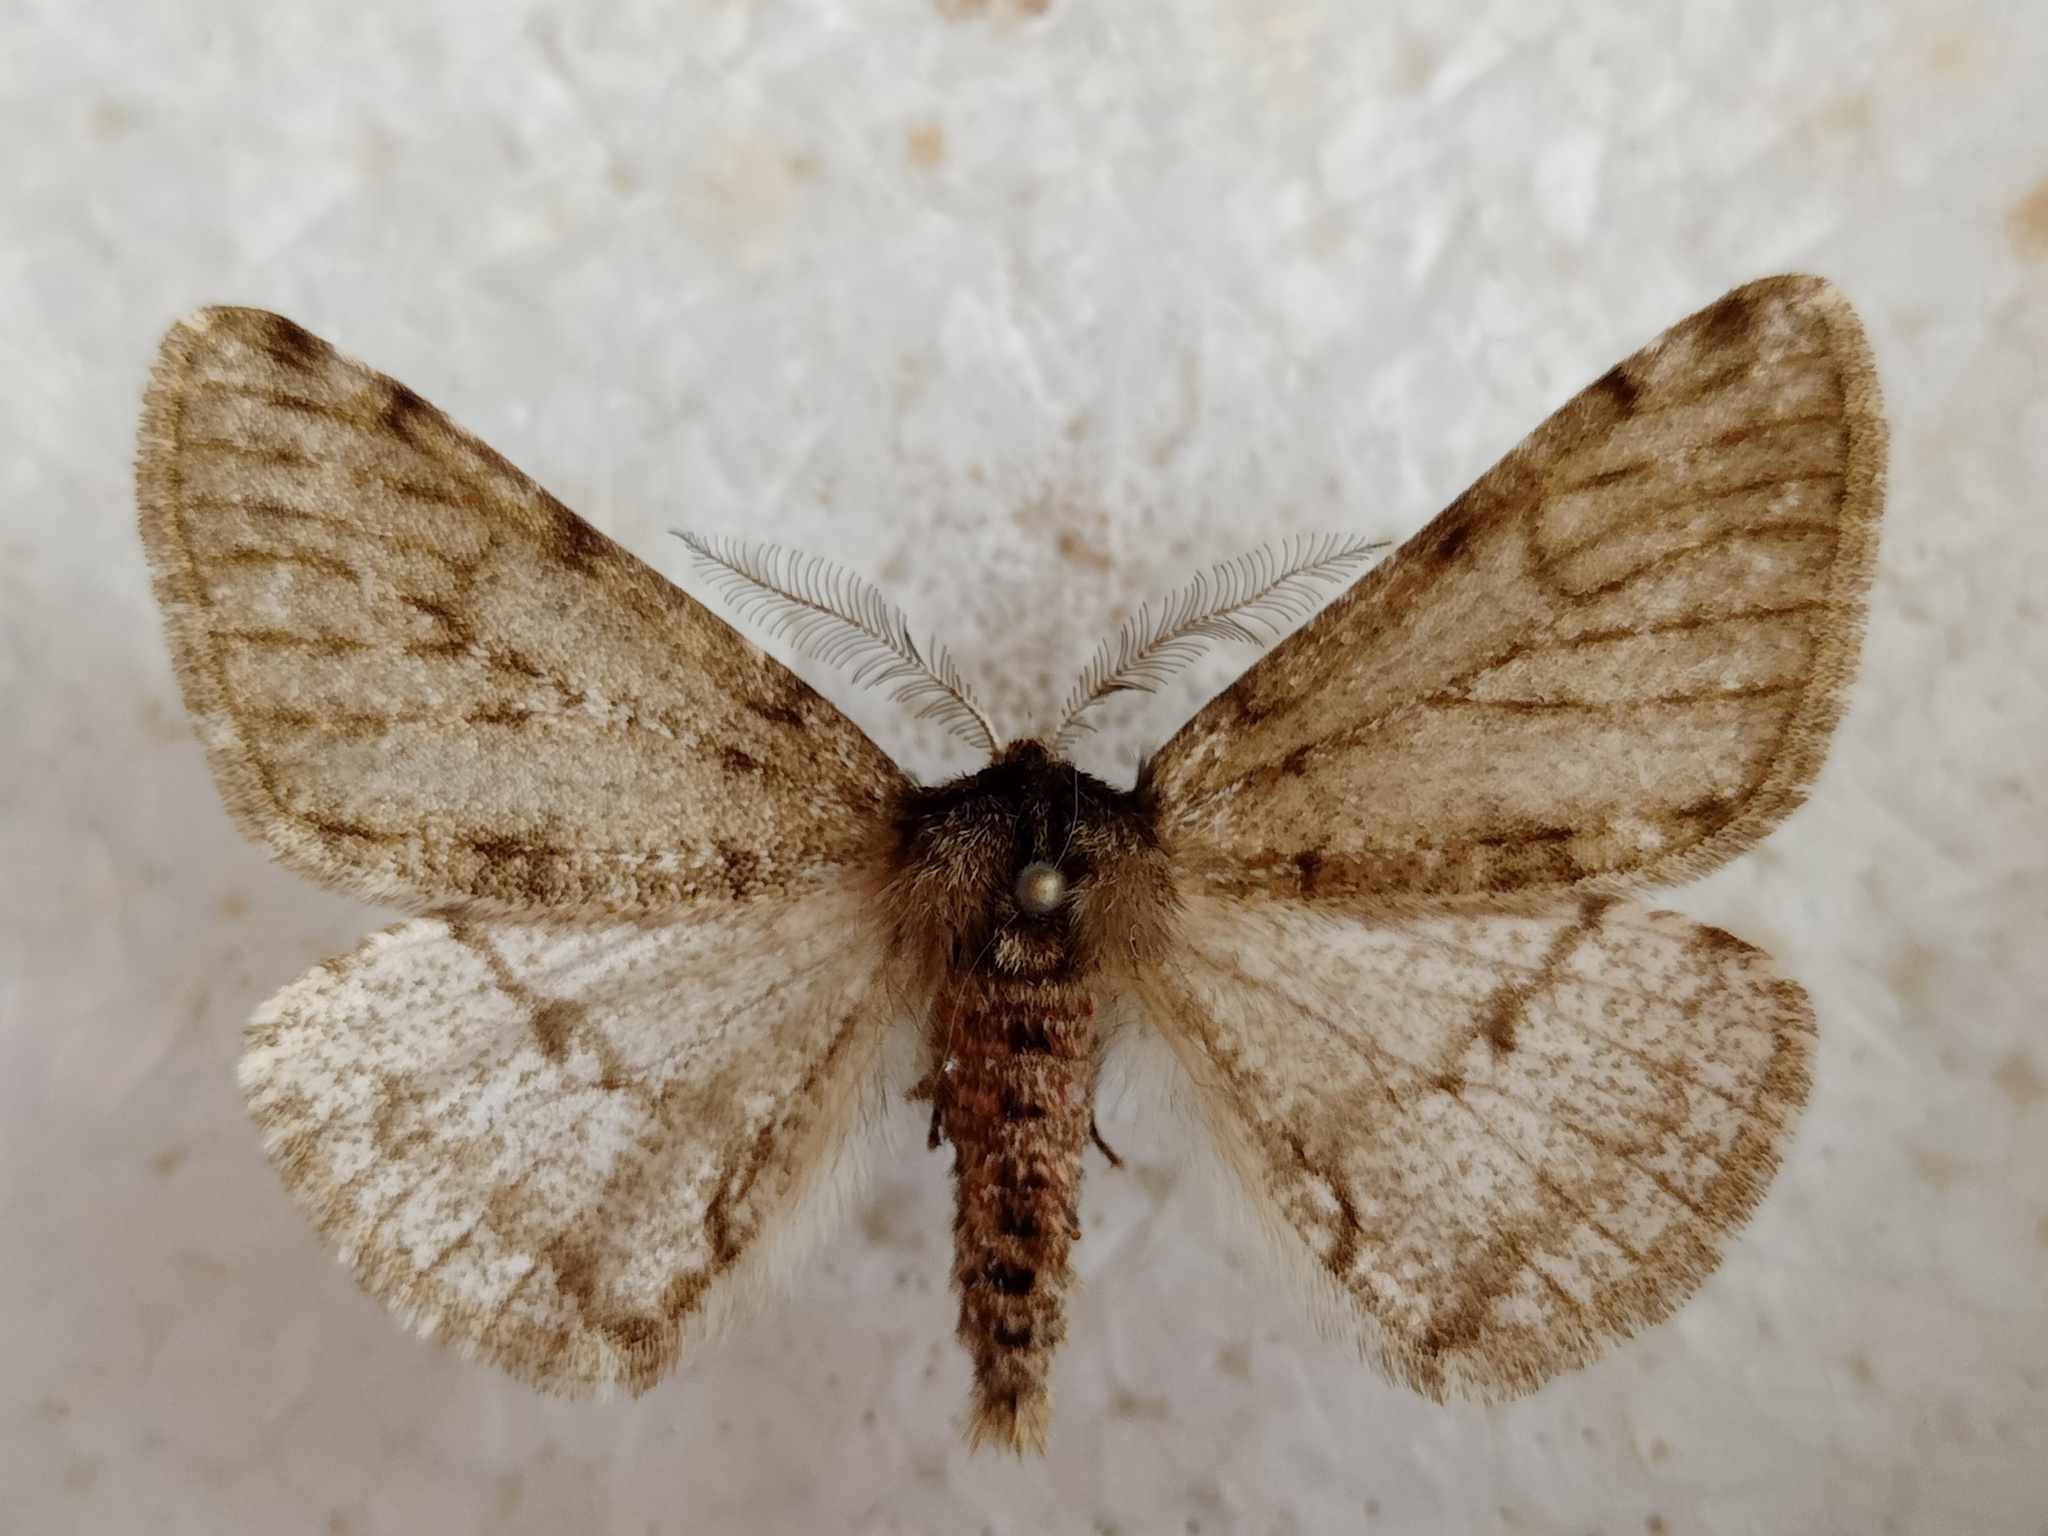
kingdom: Animalia
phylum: Arthropoda
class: Insecta
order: Lepidoptera
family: Geometridae
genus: Phigalia
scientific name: Phigalia pilosaria
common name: Pale brindled beauty
